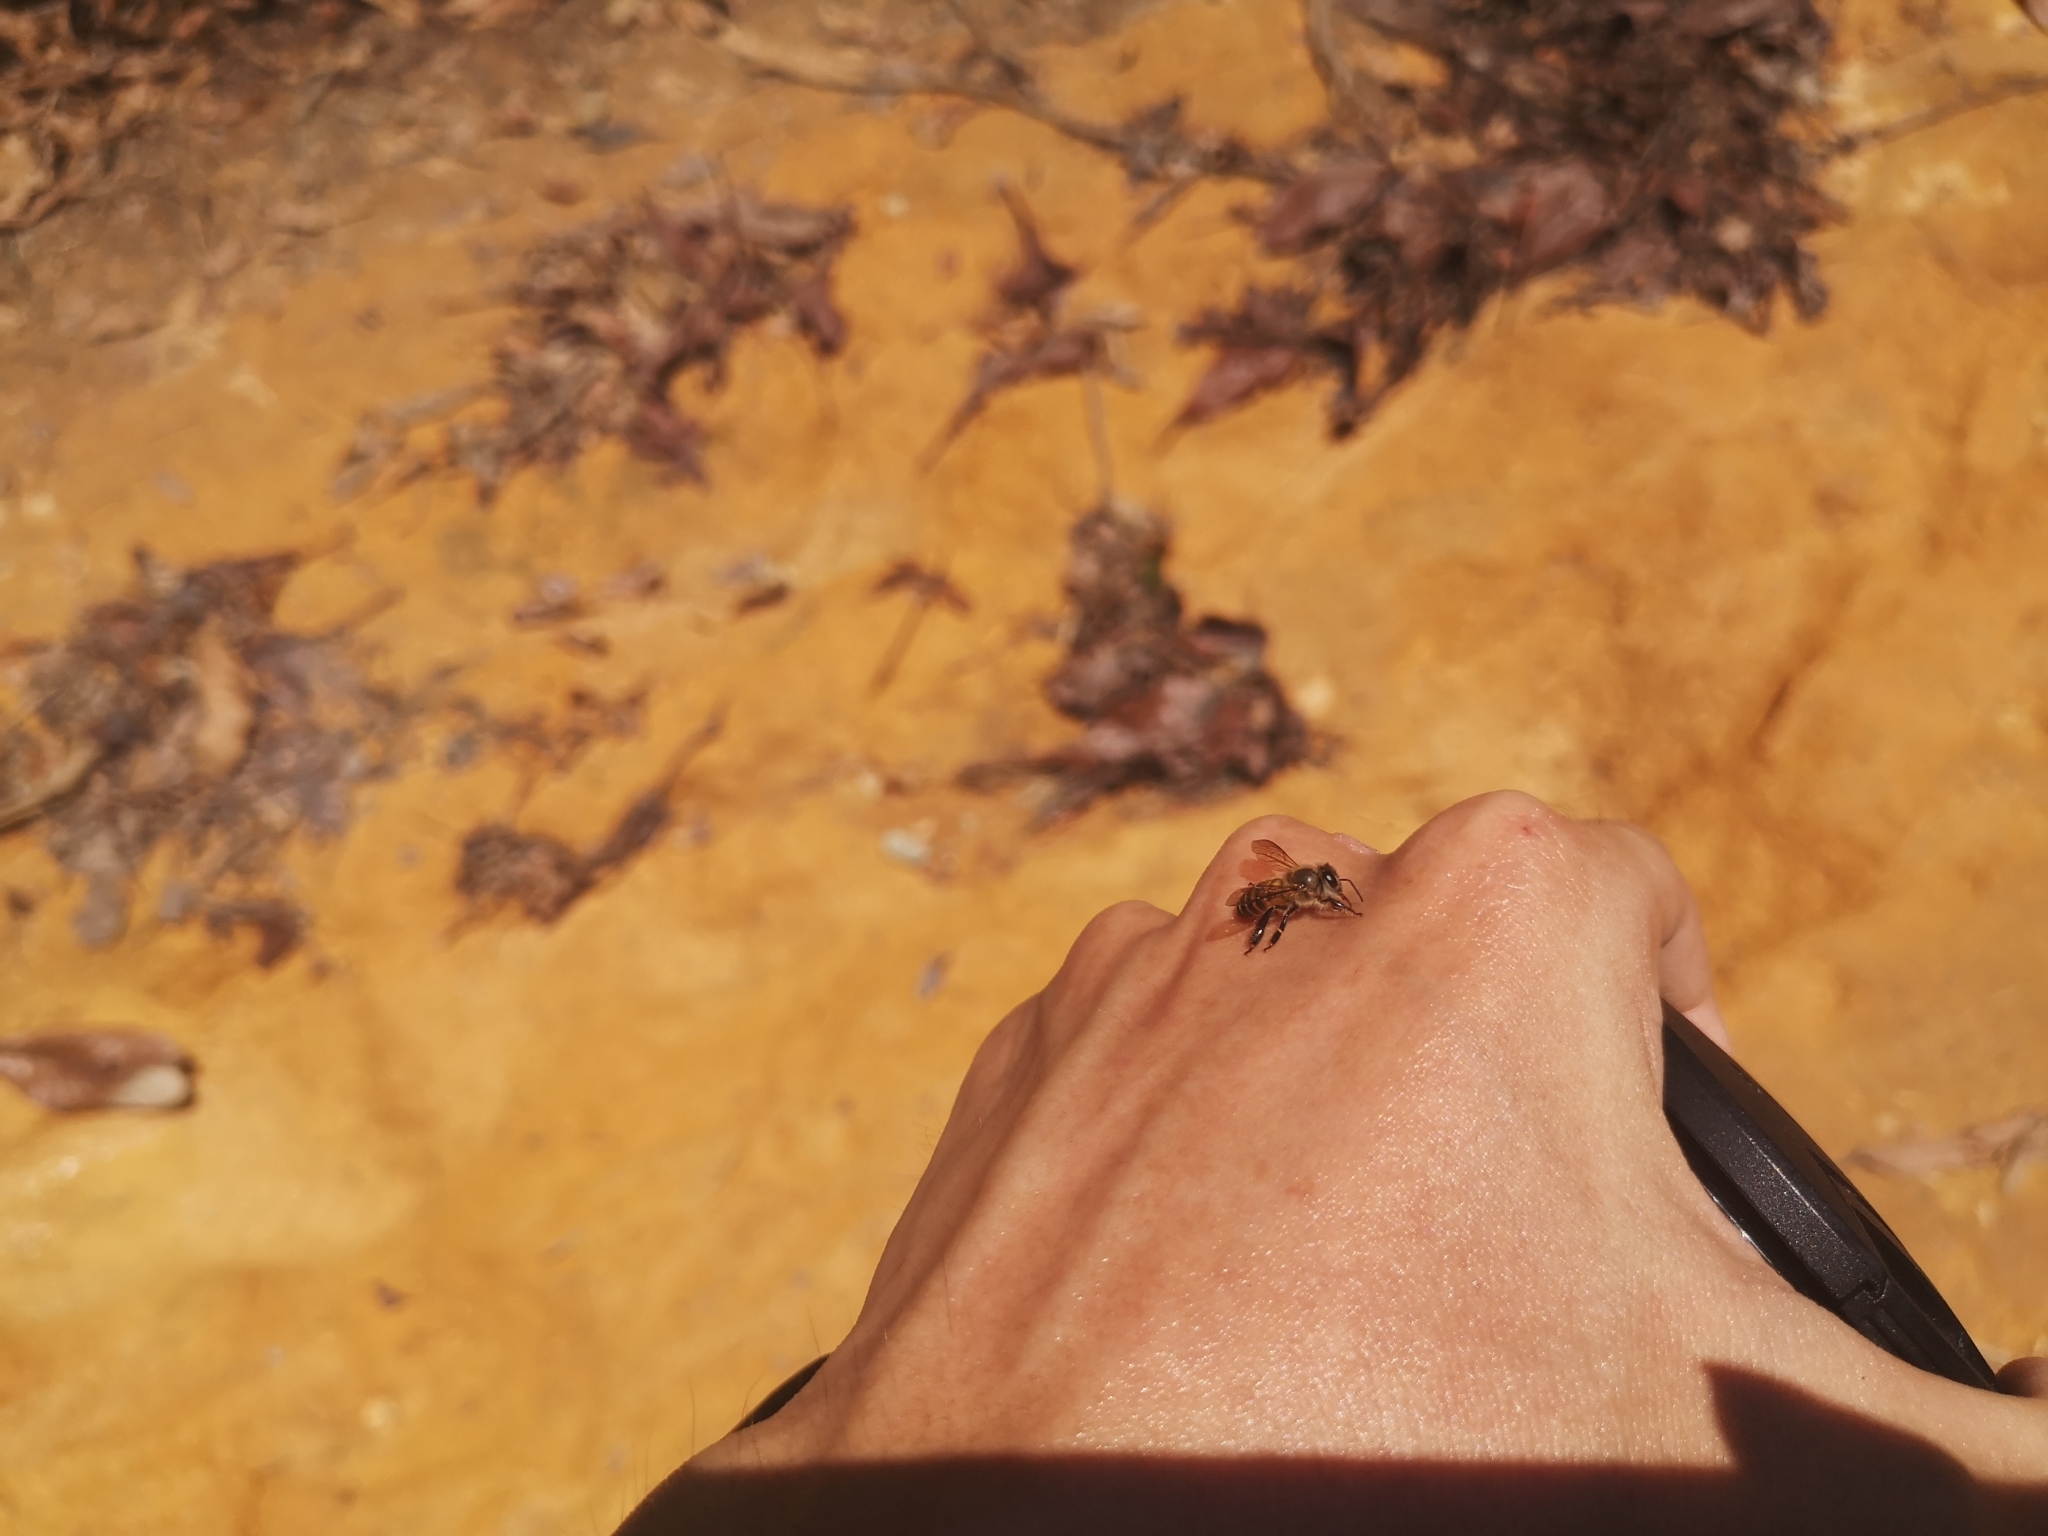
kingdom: Animalia
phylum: Arthropoda
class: Insecta
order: Hymenoptera
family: Apidae
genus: Apis
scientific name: Apis cerana
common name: Honey bee
